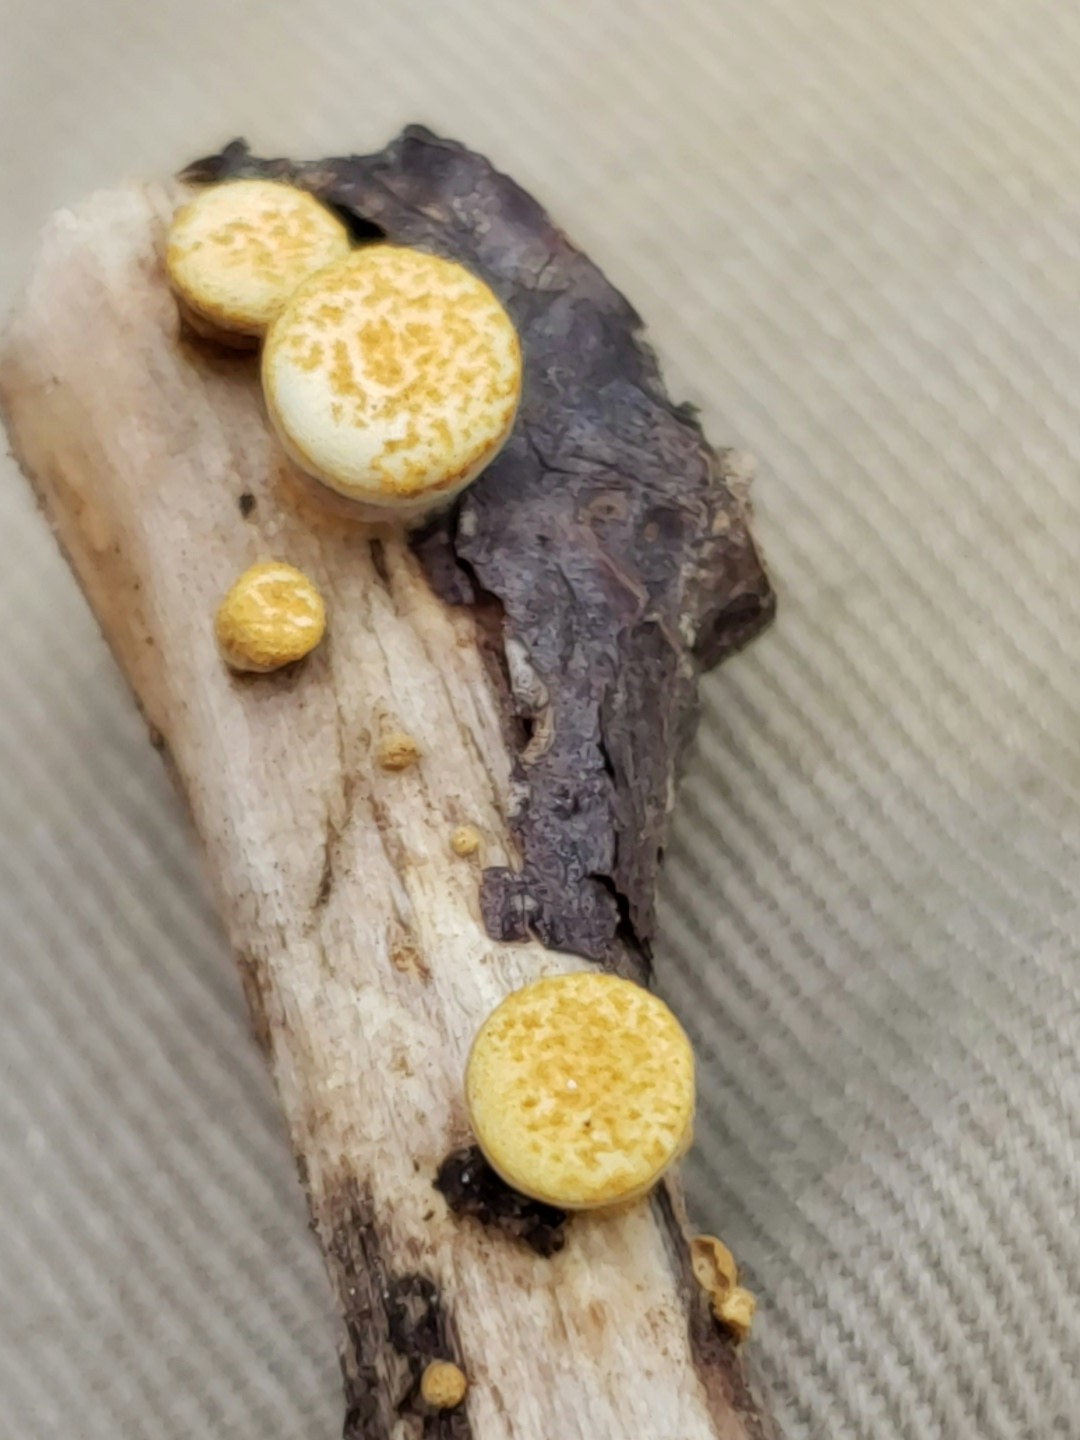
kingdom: Fungi
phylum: Basidiomycota
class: Agaricomycetes
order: Agaricales
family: Nidulariaceae
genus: Crucibulum
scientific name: Crucibulum laeve
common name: Common bird's nest
